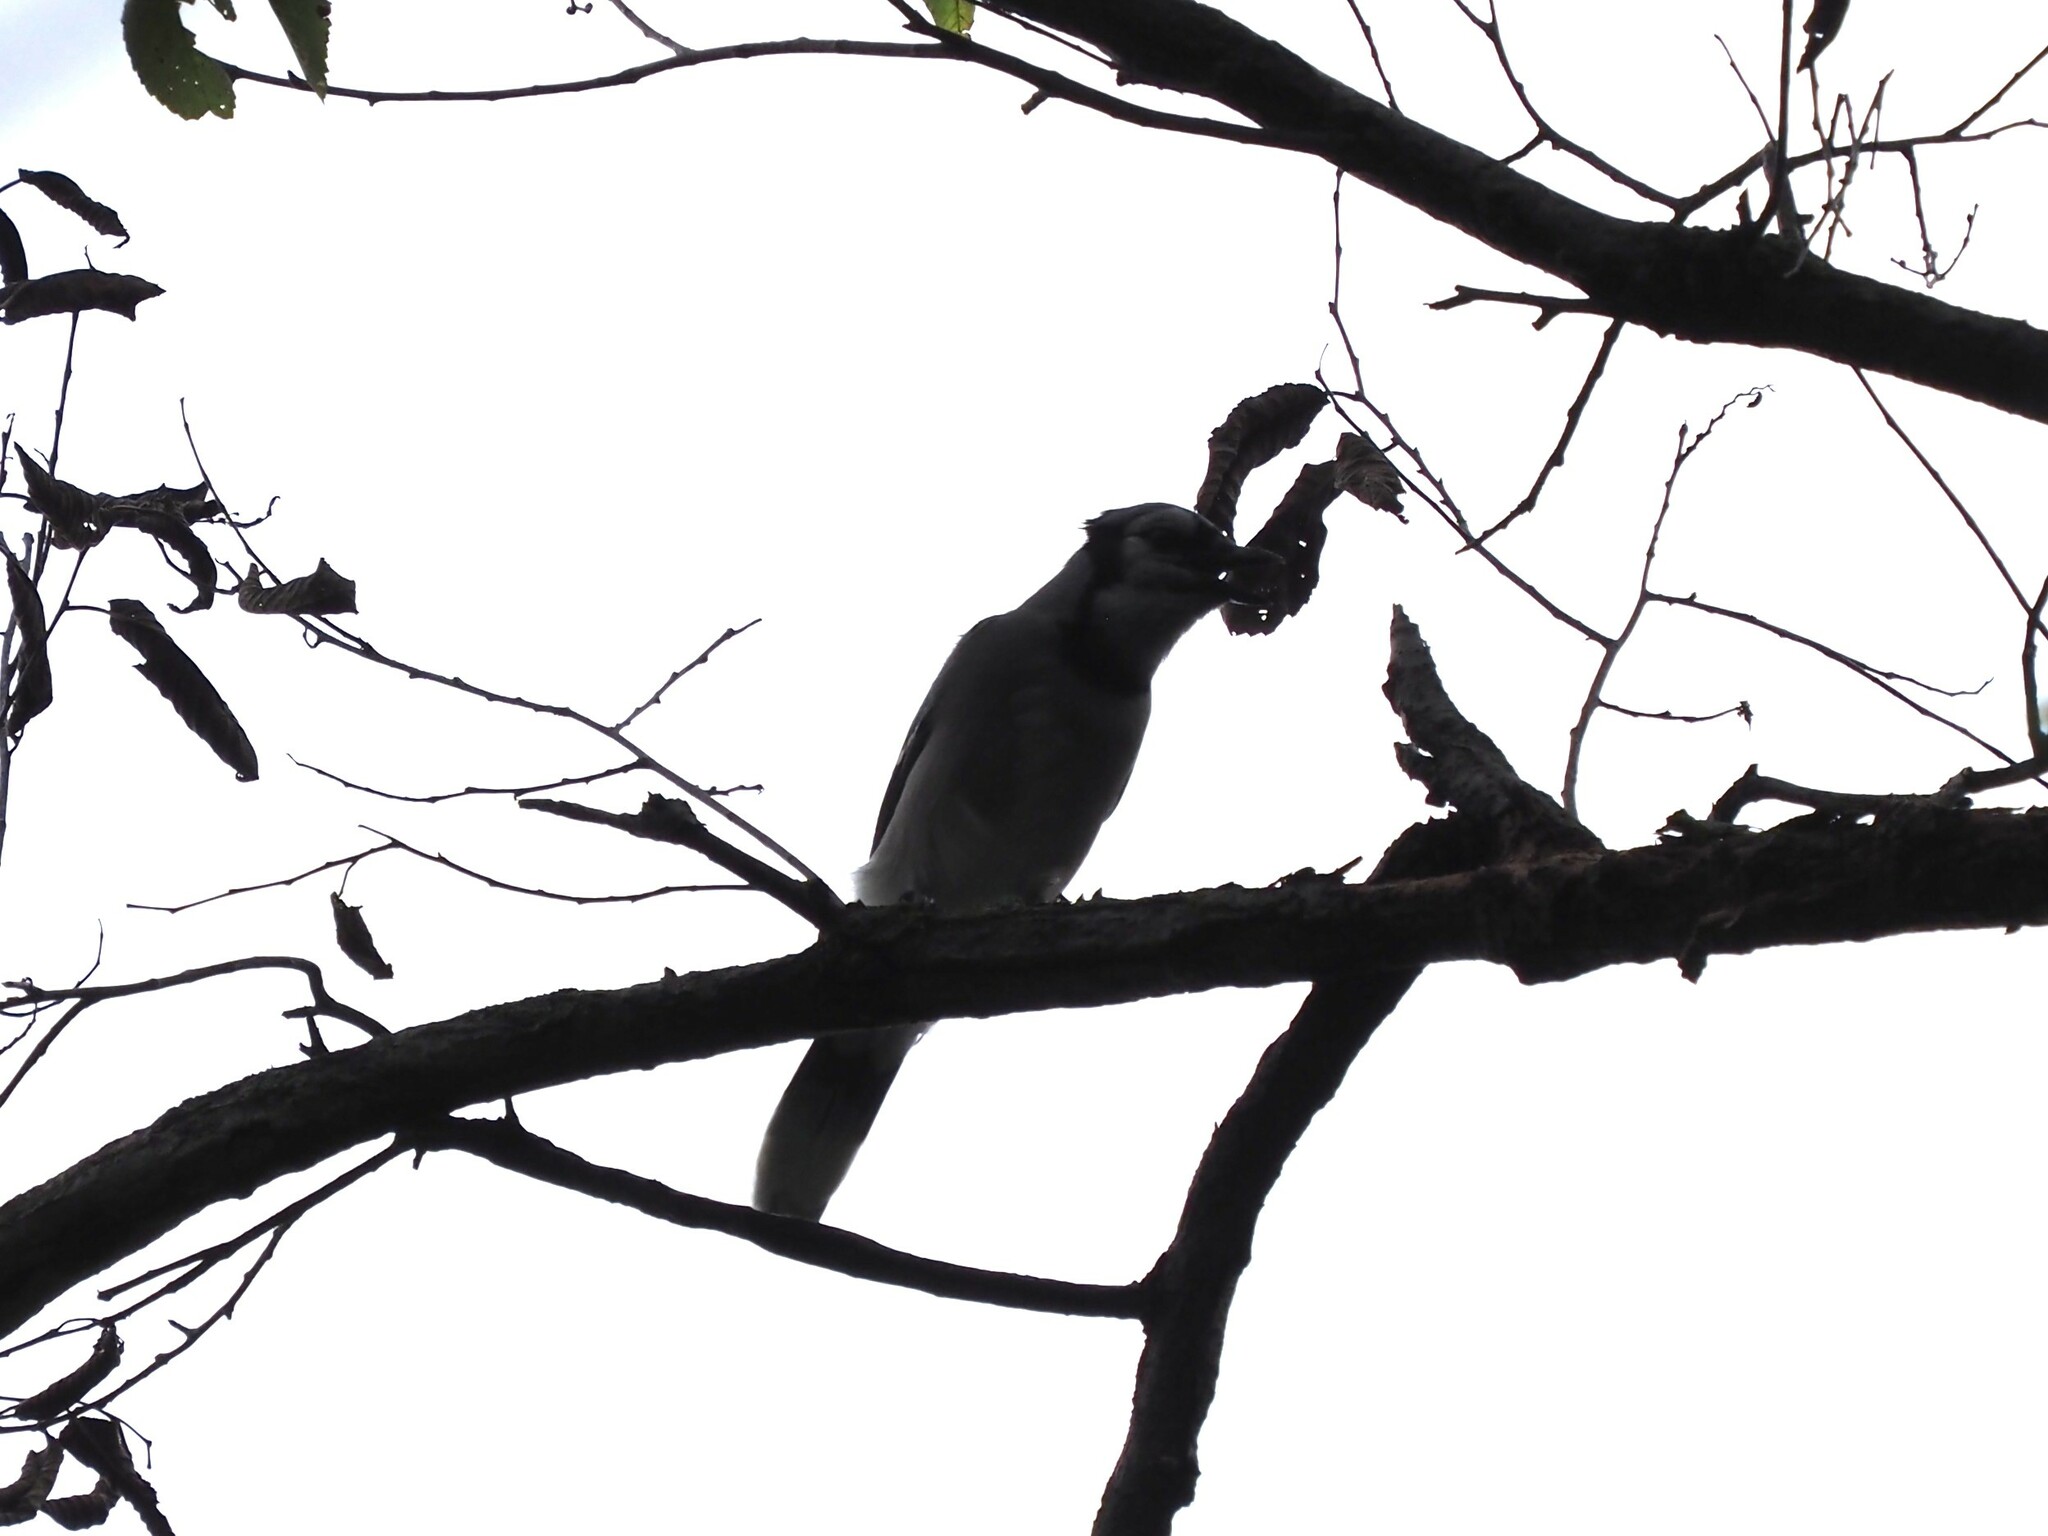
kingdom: Animalia
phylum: Chordata
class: Aves
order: Passeriformes
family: Corvidae
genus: Cyanocitta
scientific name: Cyanocitta cristata
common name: Blue jay
